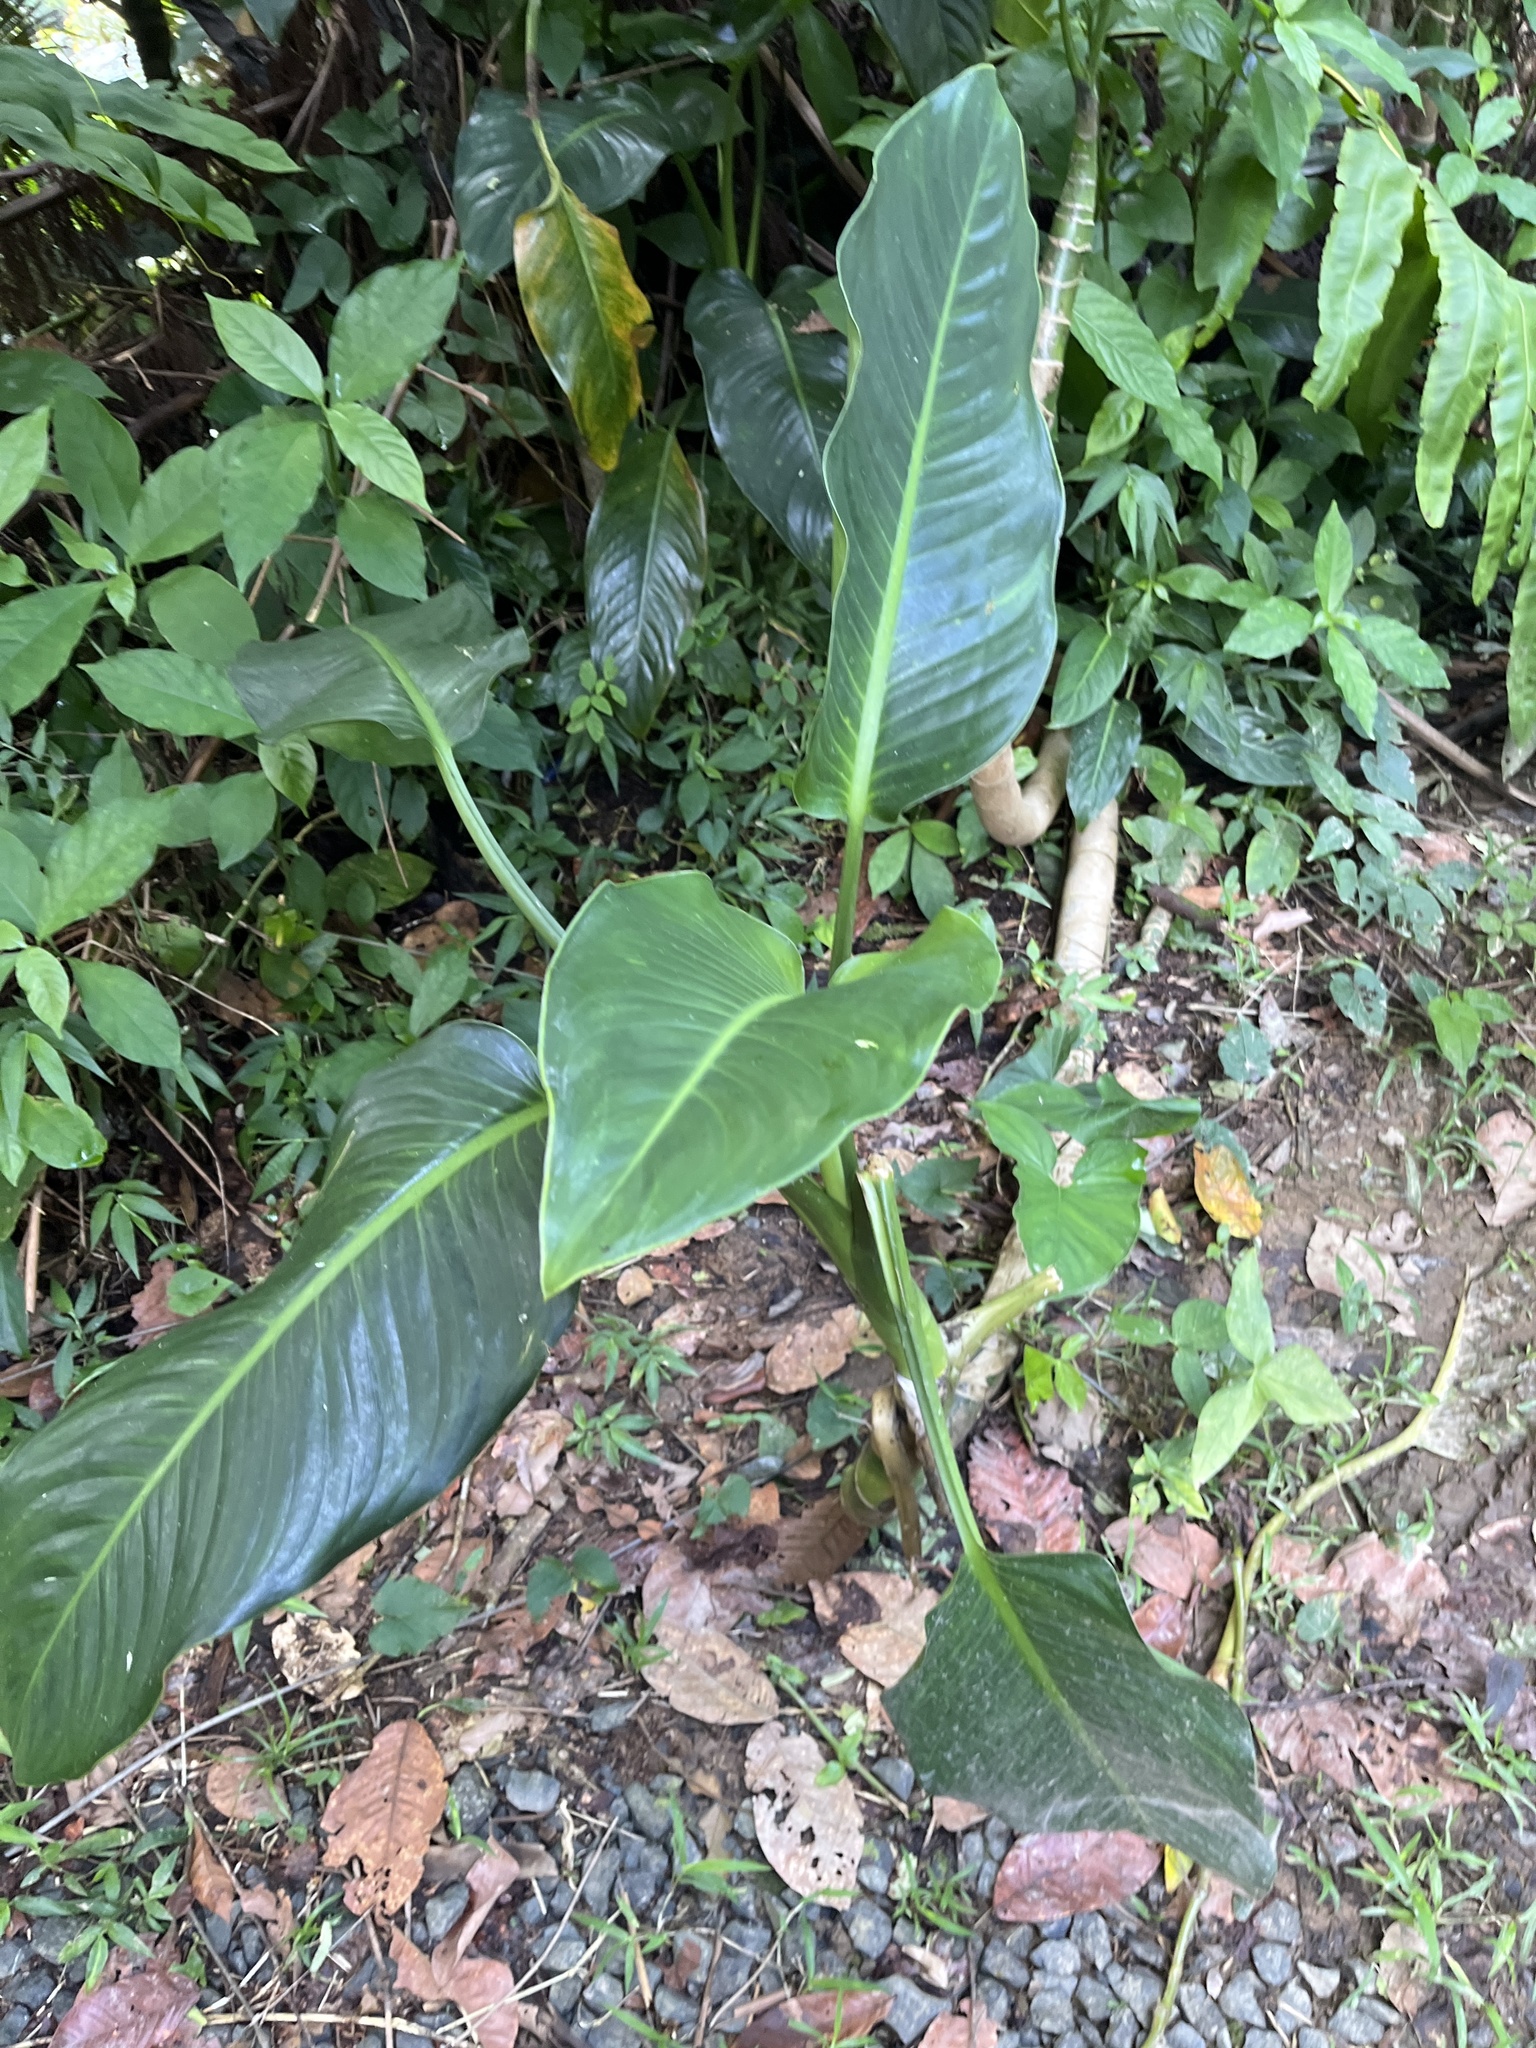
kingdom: Plantae
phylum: Tracheophyta
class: Liliopsida
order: Alismatales
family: Araceae
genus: Dieffenbachia
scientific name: Dieffenbachia seguine
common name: Dumbcane
